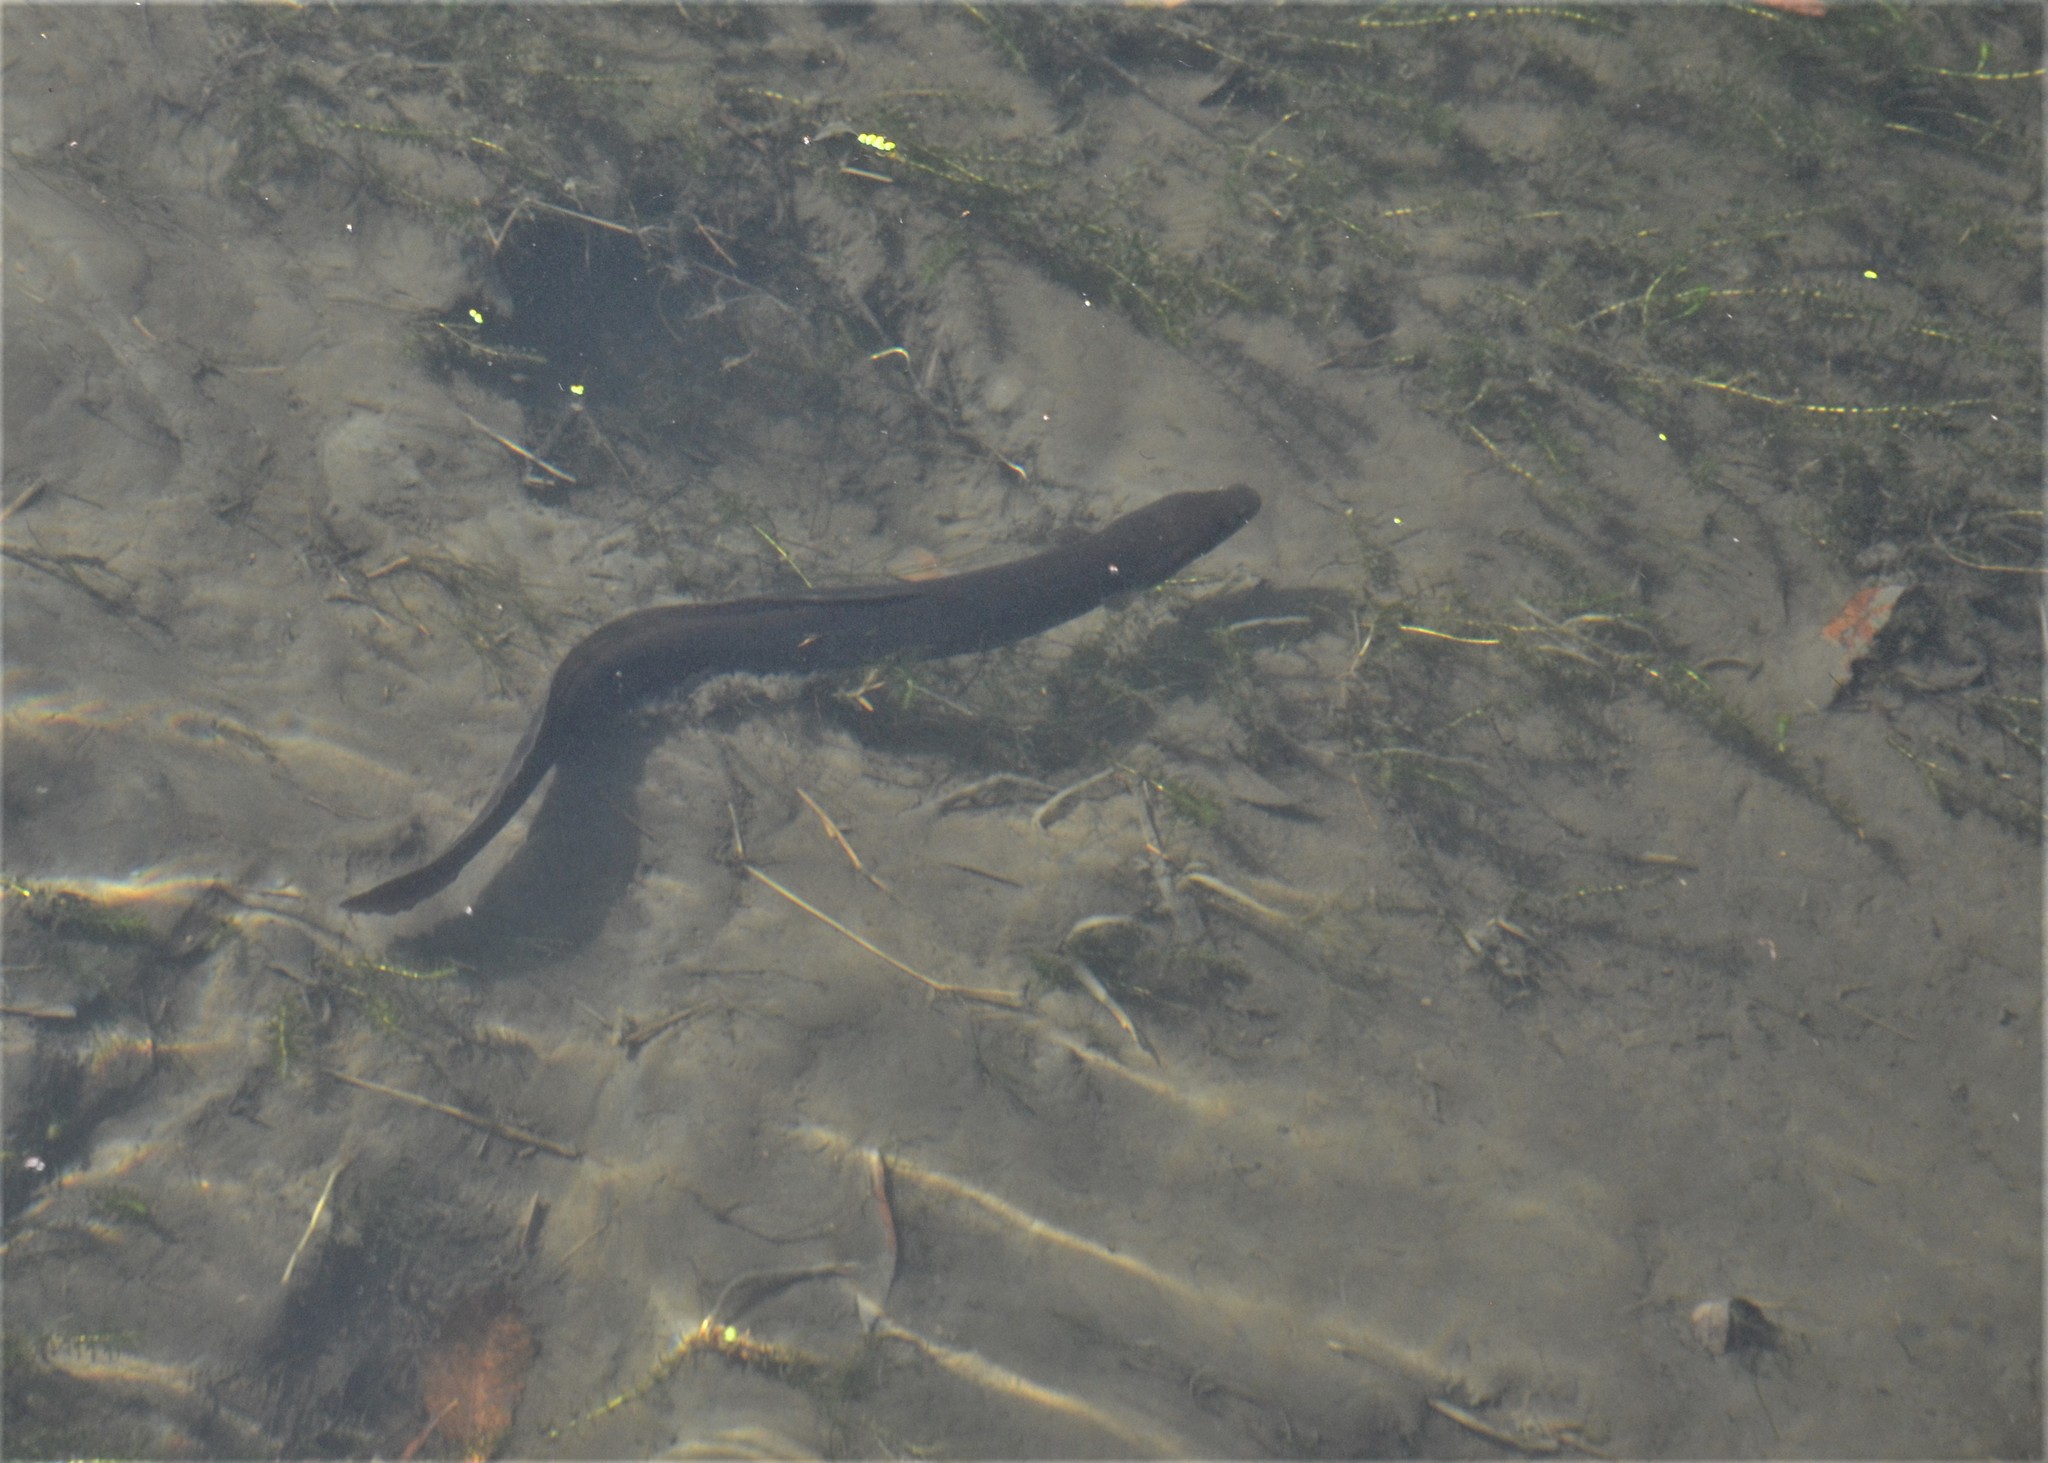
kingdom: Animalia
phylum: Chordata
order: Anguilliformes
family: Anguillidae
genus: Anguilla
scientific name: Anguilla dieffenbachii
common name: New zealand longfin eel
